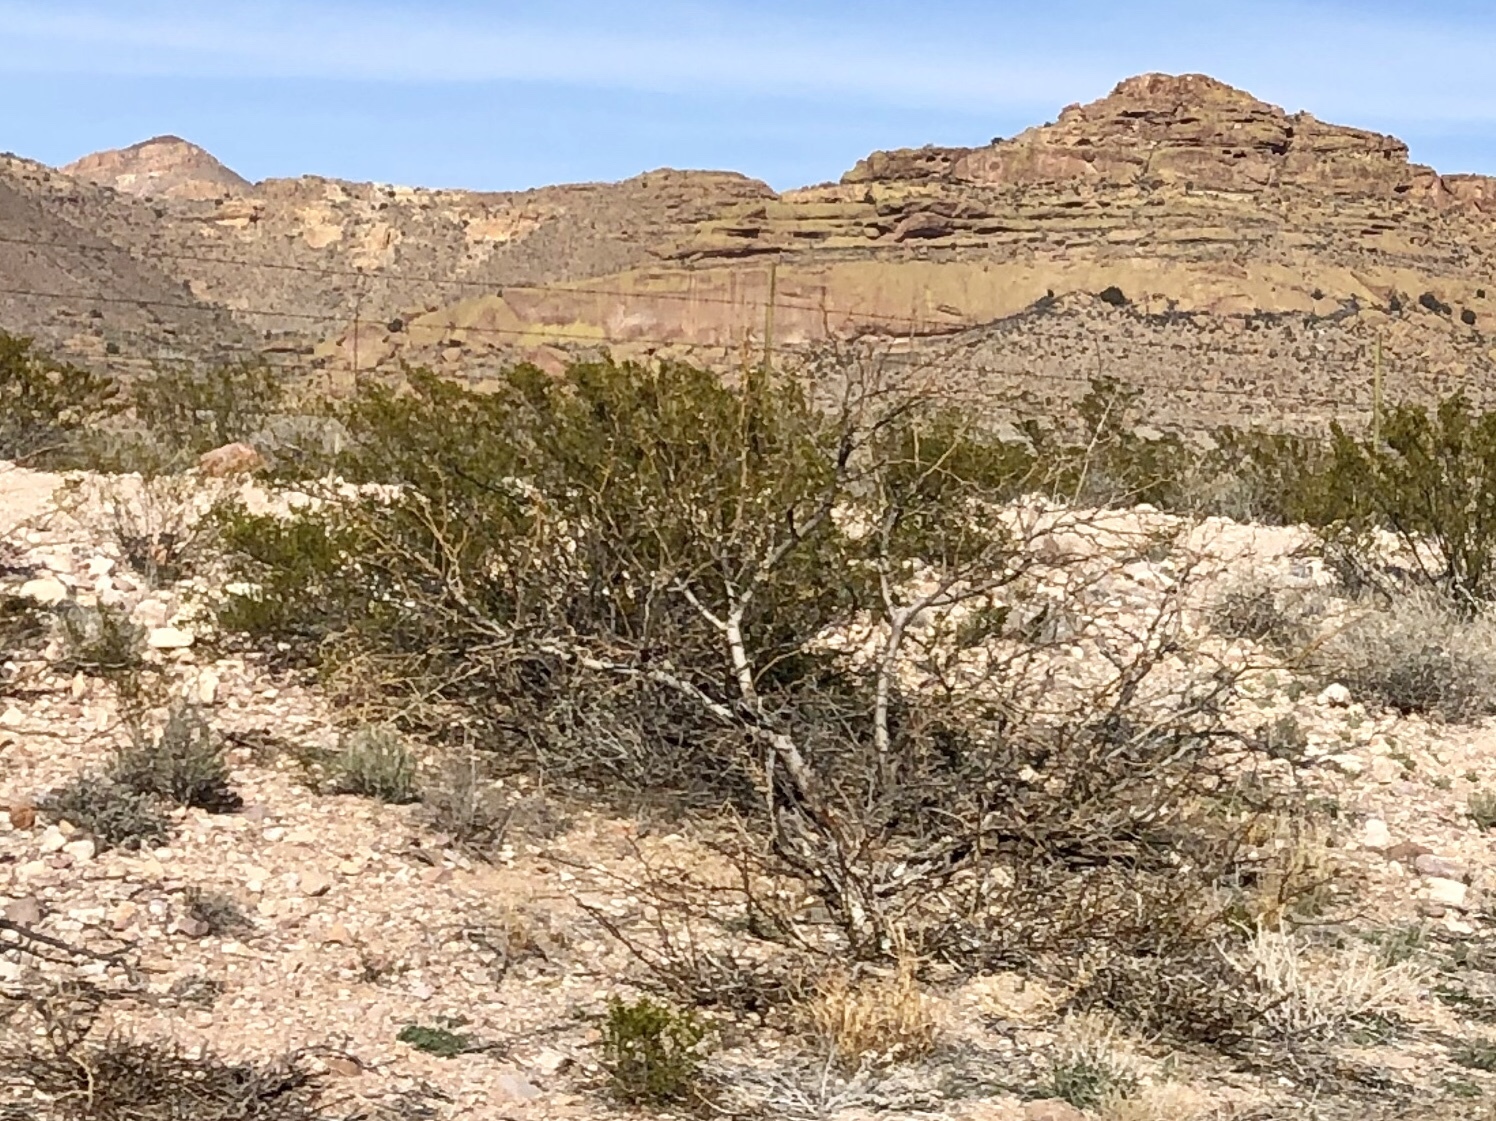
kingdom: Plantae
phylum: Tracheophyta
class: Magnoliopsida
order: Zygophyllales
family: Zygophyllaceae
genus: Larrea
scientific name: Larrea tridentata
